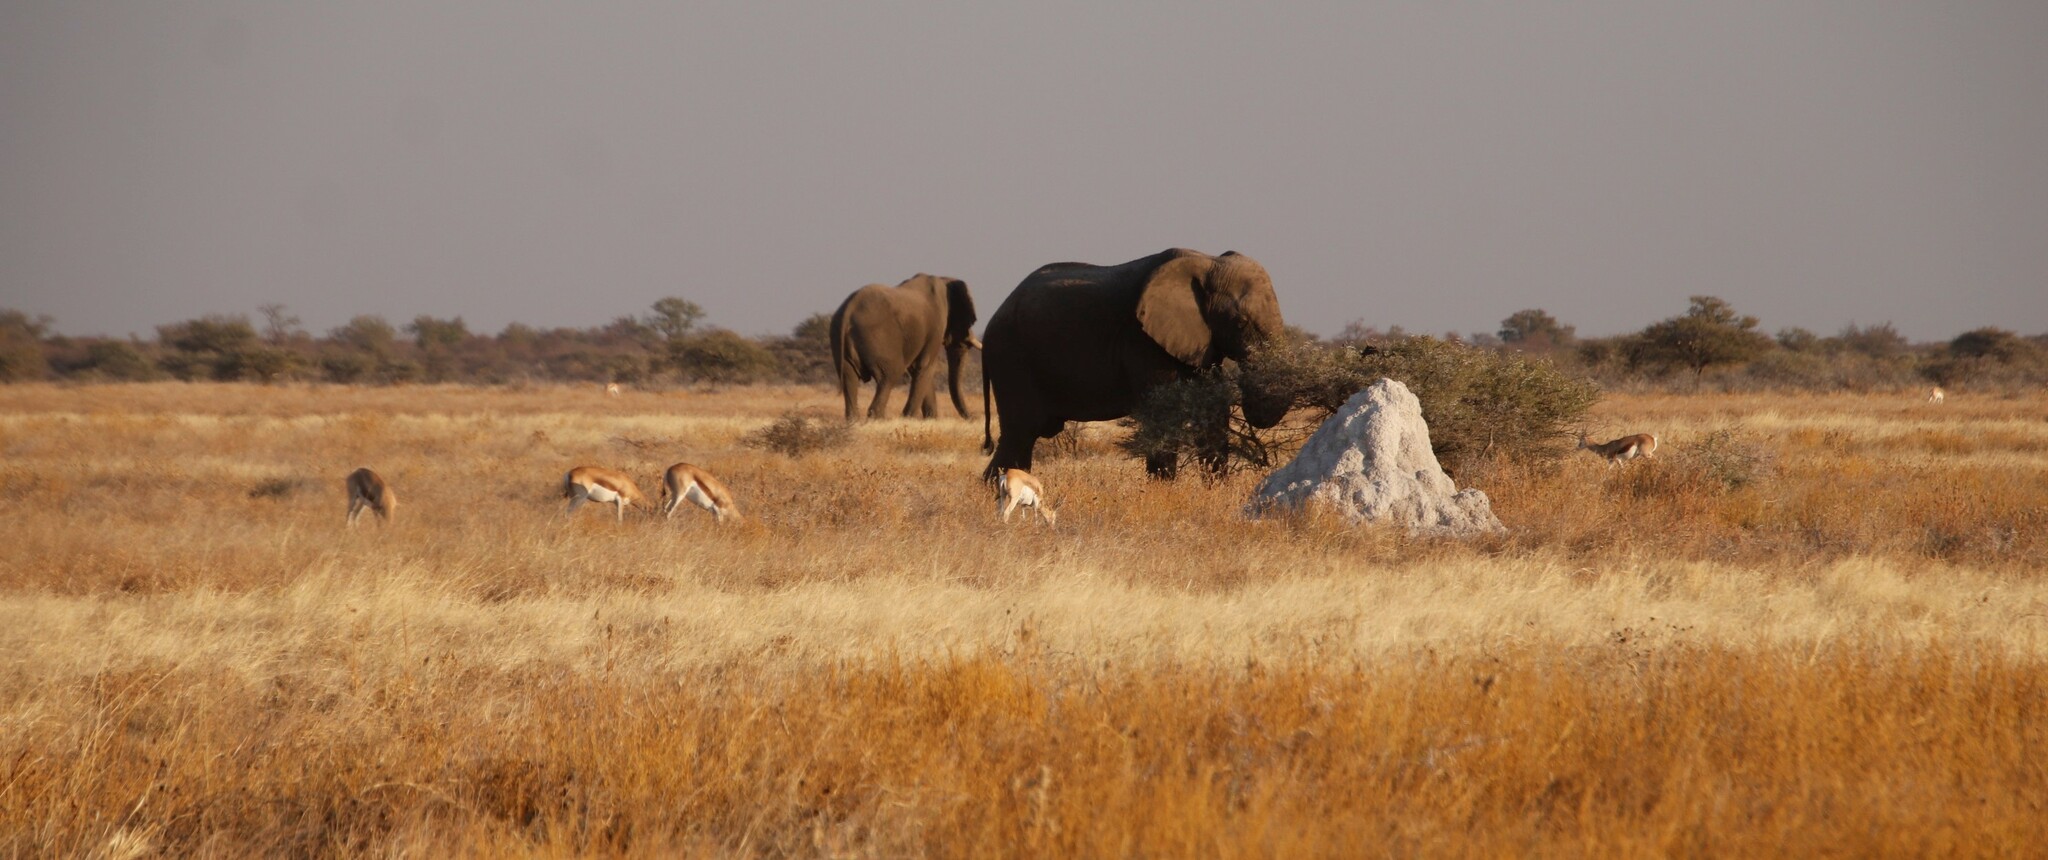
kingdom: Animalia
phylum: Chordata
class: Mammalia
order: Proboscidea
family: Elephantidae
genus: Loxodonta
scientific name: Loxodonta africana
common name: African elephant
